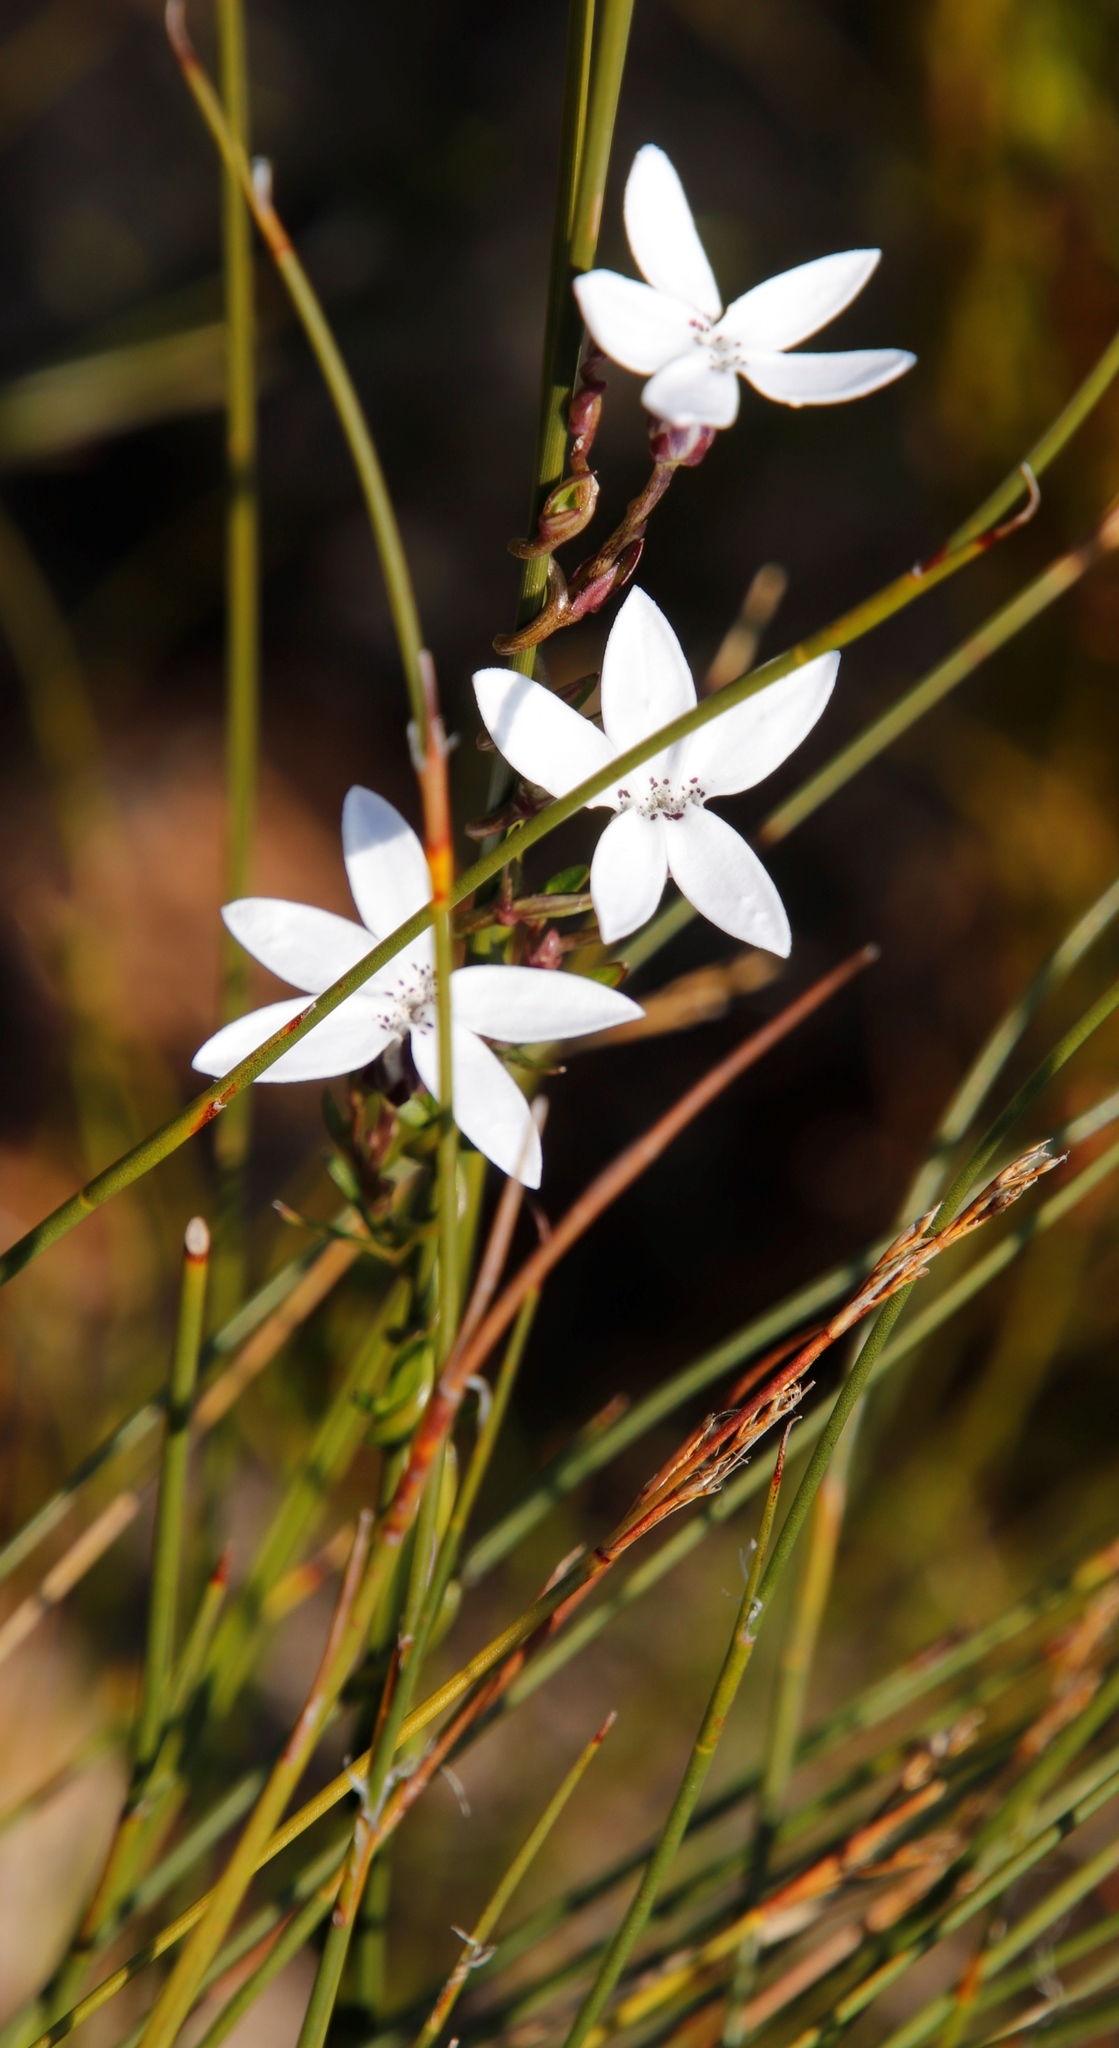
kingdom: Plantae
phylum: Tracheophyta
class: Magnoliopsida
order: Asterales
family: Campanulaceae
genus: Cyphia
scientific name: Cyphia volubilis
